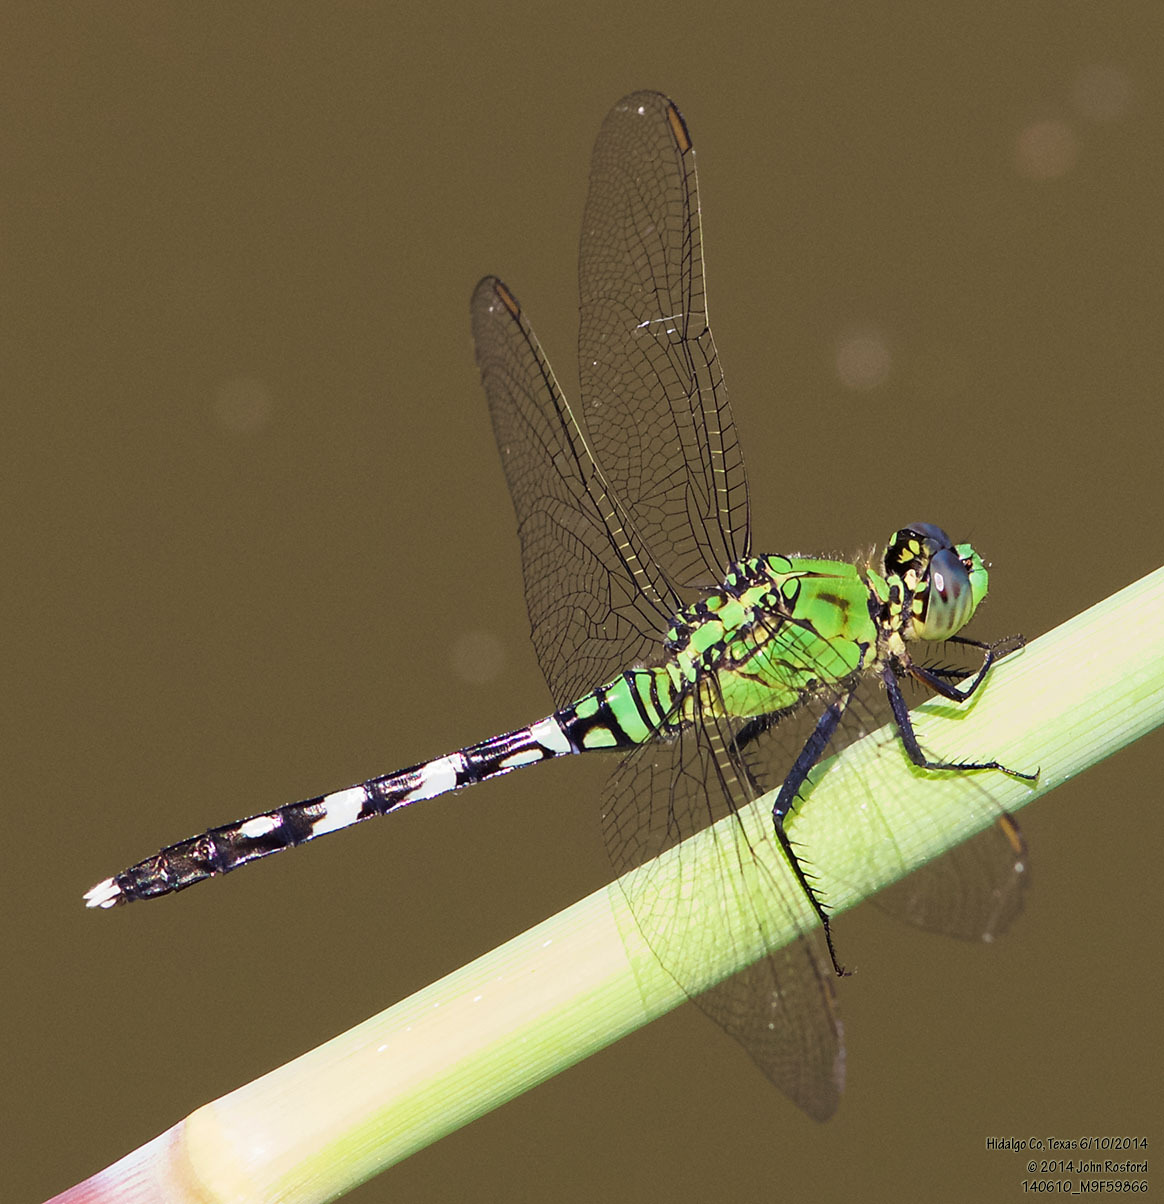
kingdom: Animalia
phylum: Arthropoda
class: Insecta
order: Odonata
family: Libellulidae
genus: Erythemis
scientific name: Erythemis simplicicollis
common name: Eastern pondhawk
